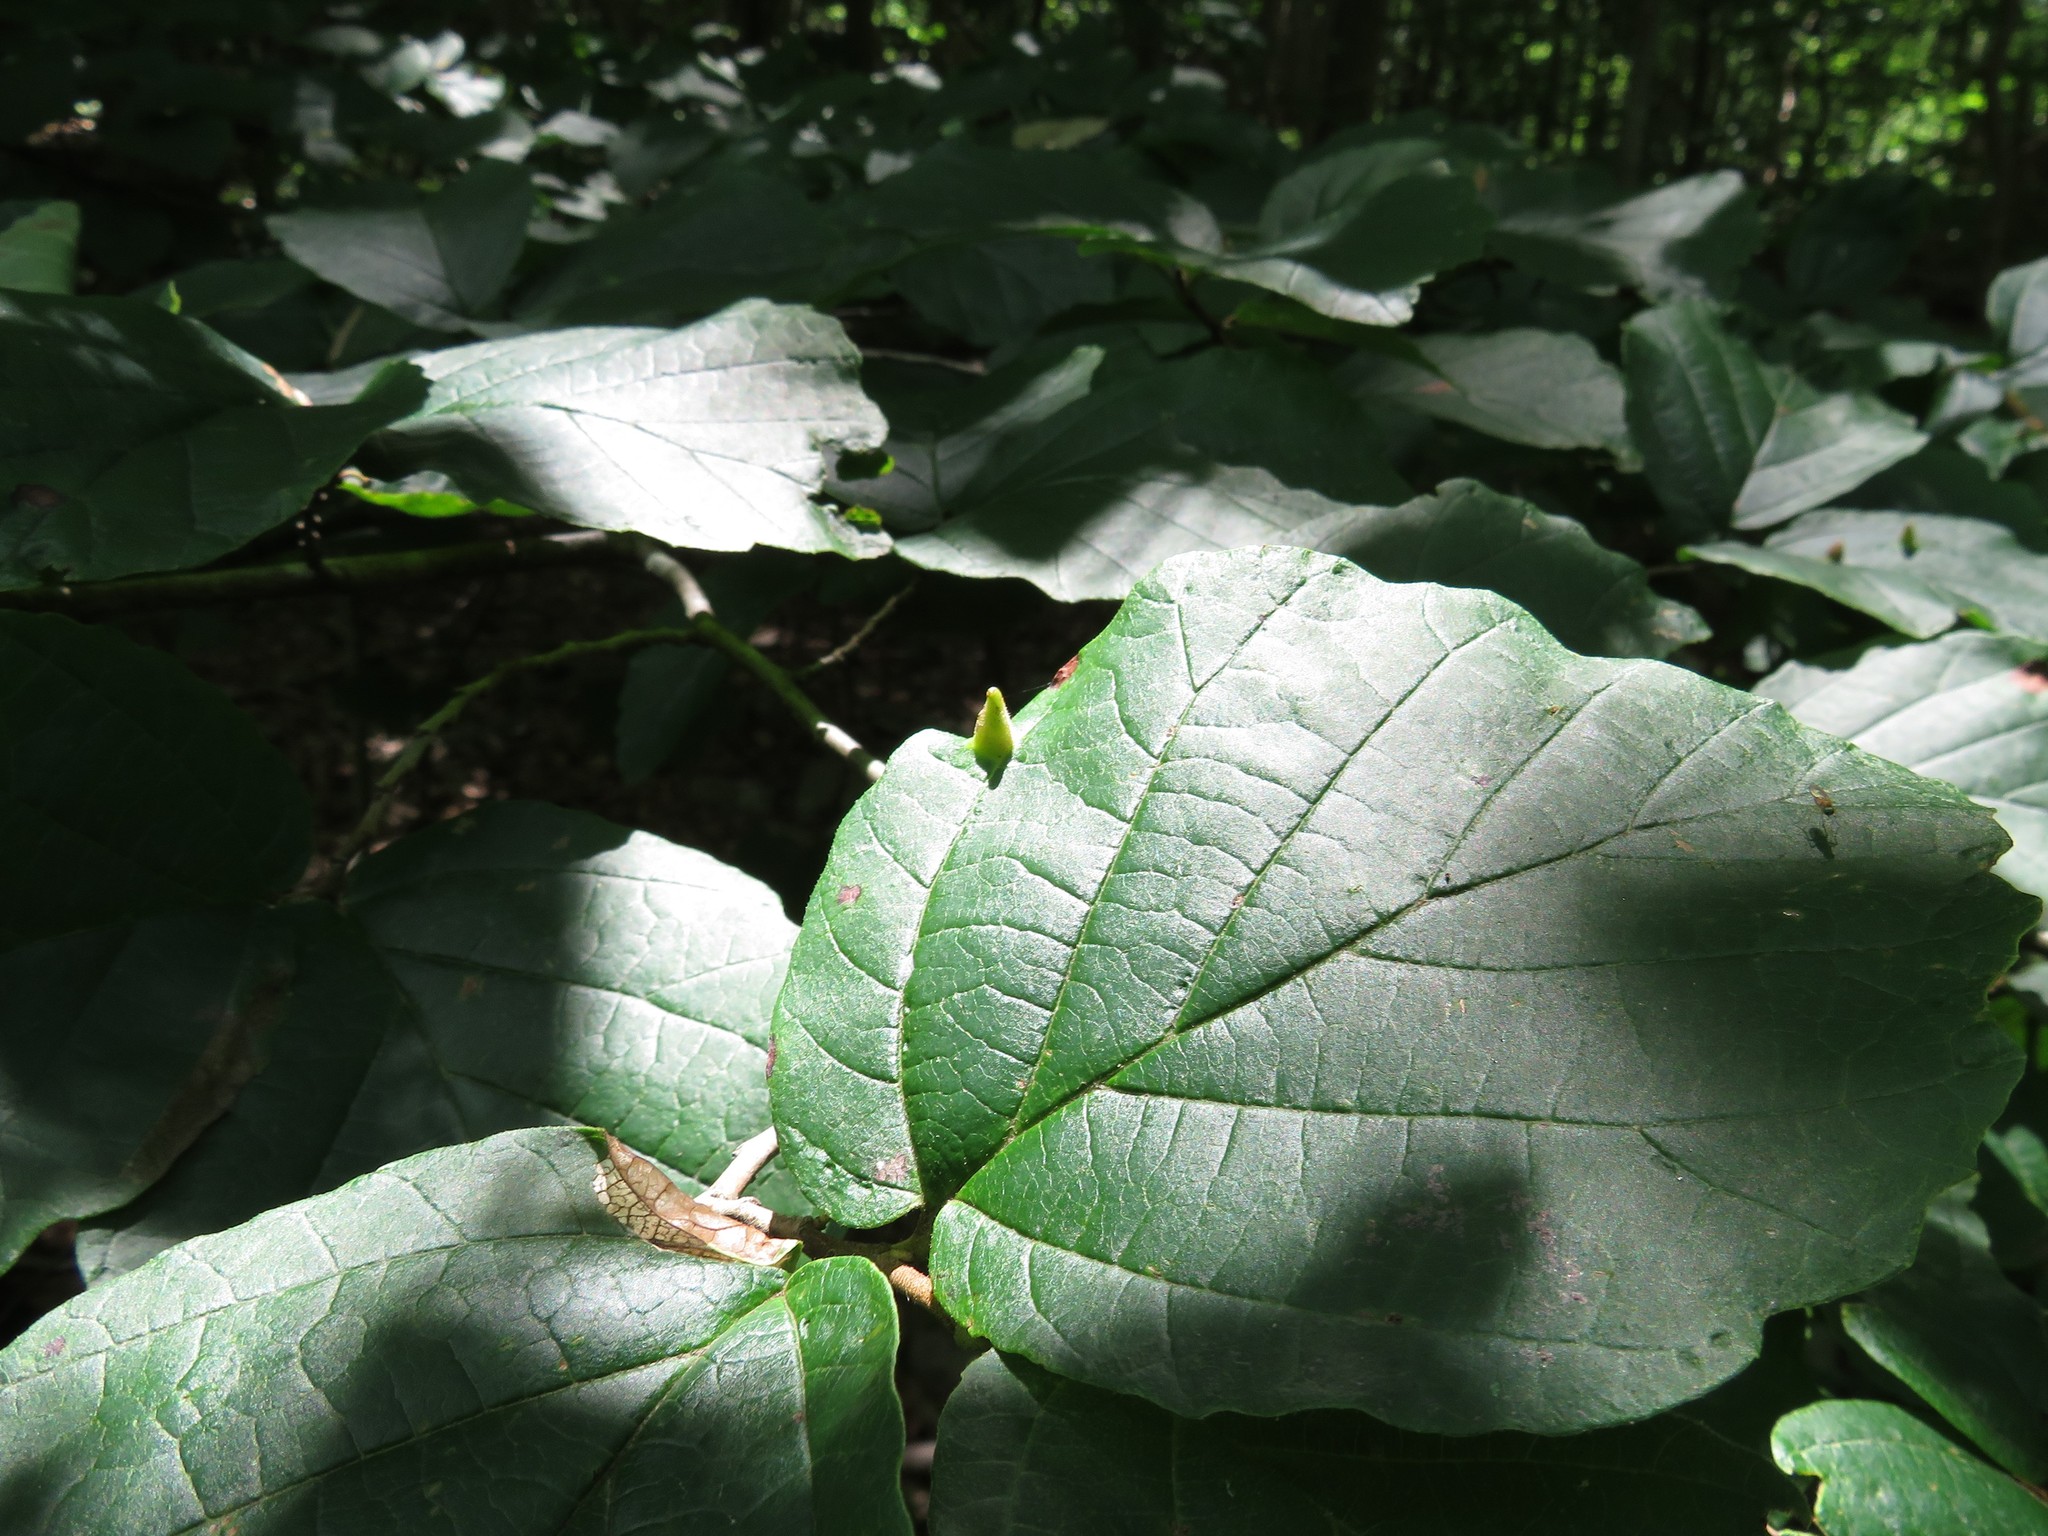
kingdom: Animalia
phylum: Arthropoda
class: Insecta
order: Hemiptera
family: Aphididae
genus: Hormaphis
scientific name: Hormaphis hamamelidis
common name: Witch-hazel cone gall aphid
